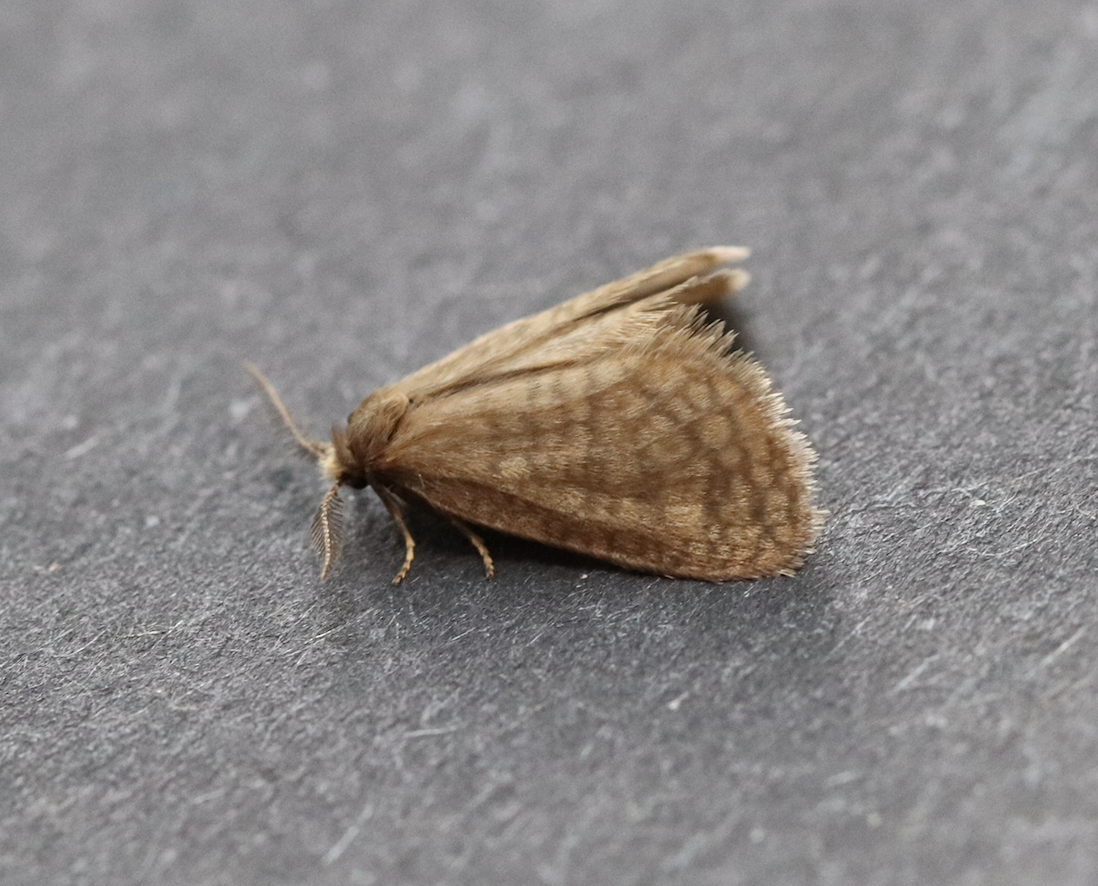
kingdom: Animalia
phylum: Arthropoda
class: Insecta
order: Lepidoptera
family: Psychidae
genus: Bijugis
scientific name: Bijugis bombycella
